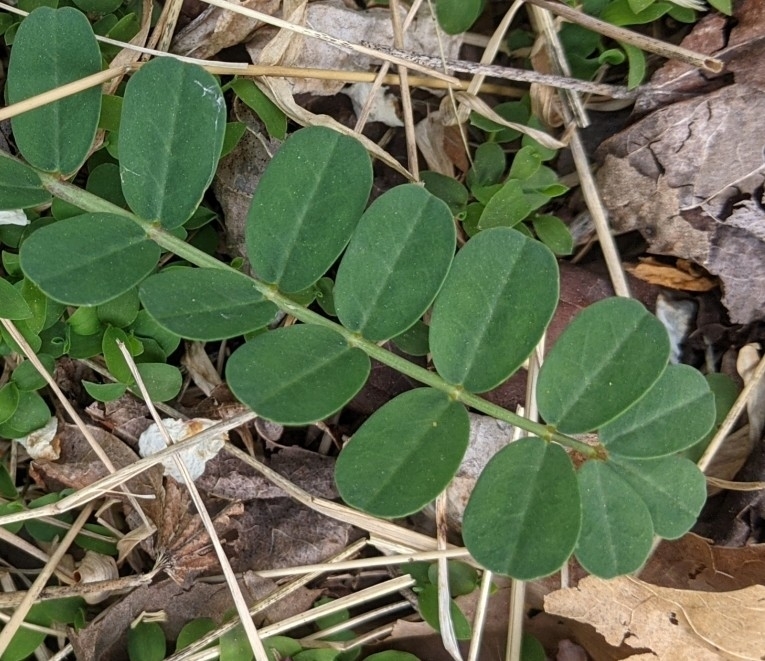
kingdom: Plantae
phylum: Tracheophyta
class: Magnoliopsida
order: Fabales
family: Fabaceae
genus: Coronilla
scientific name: Coronilla varia
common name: Crownvetch
